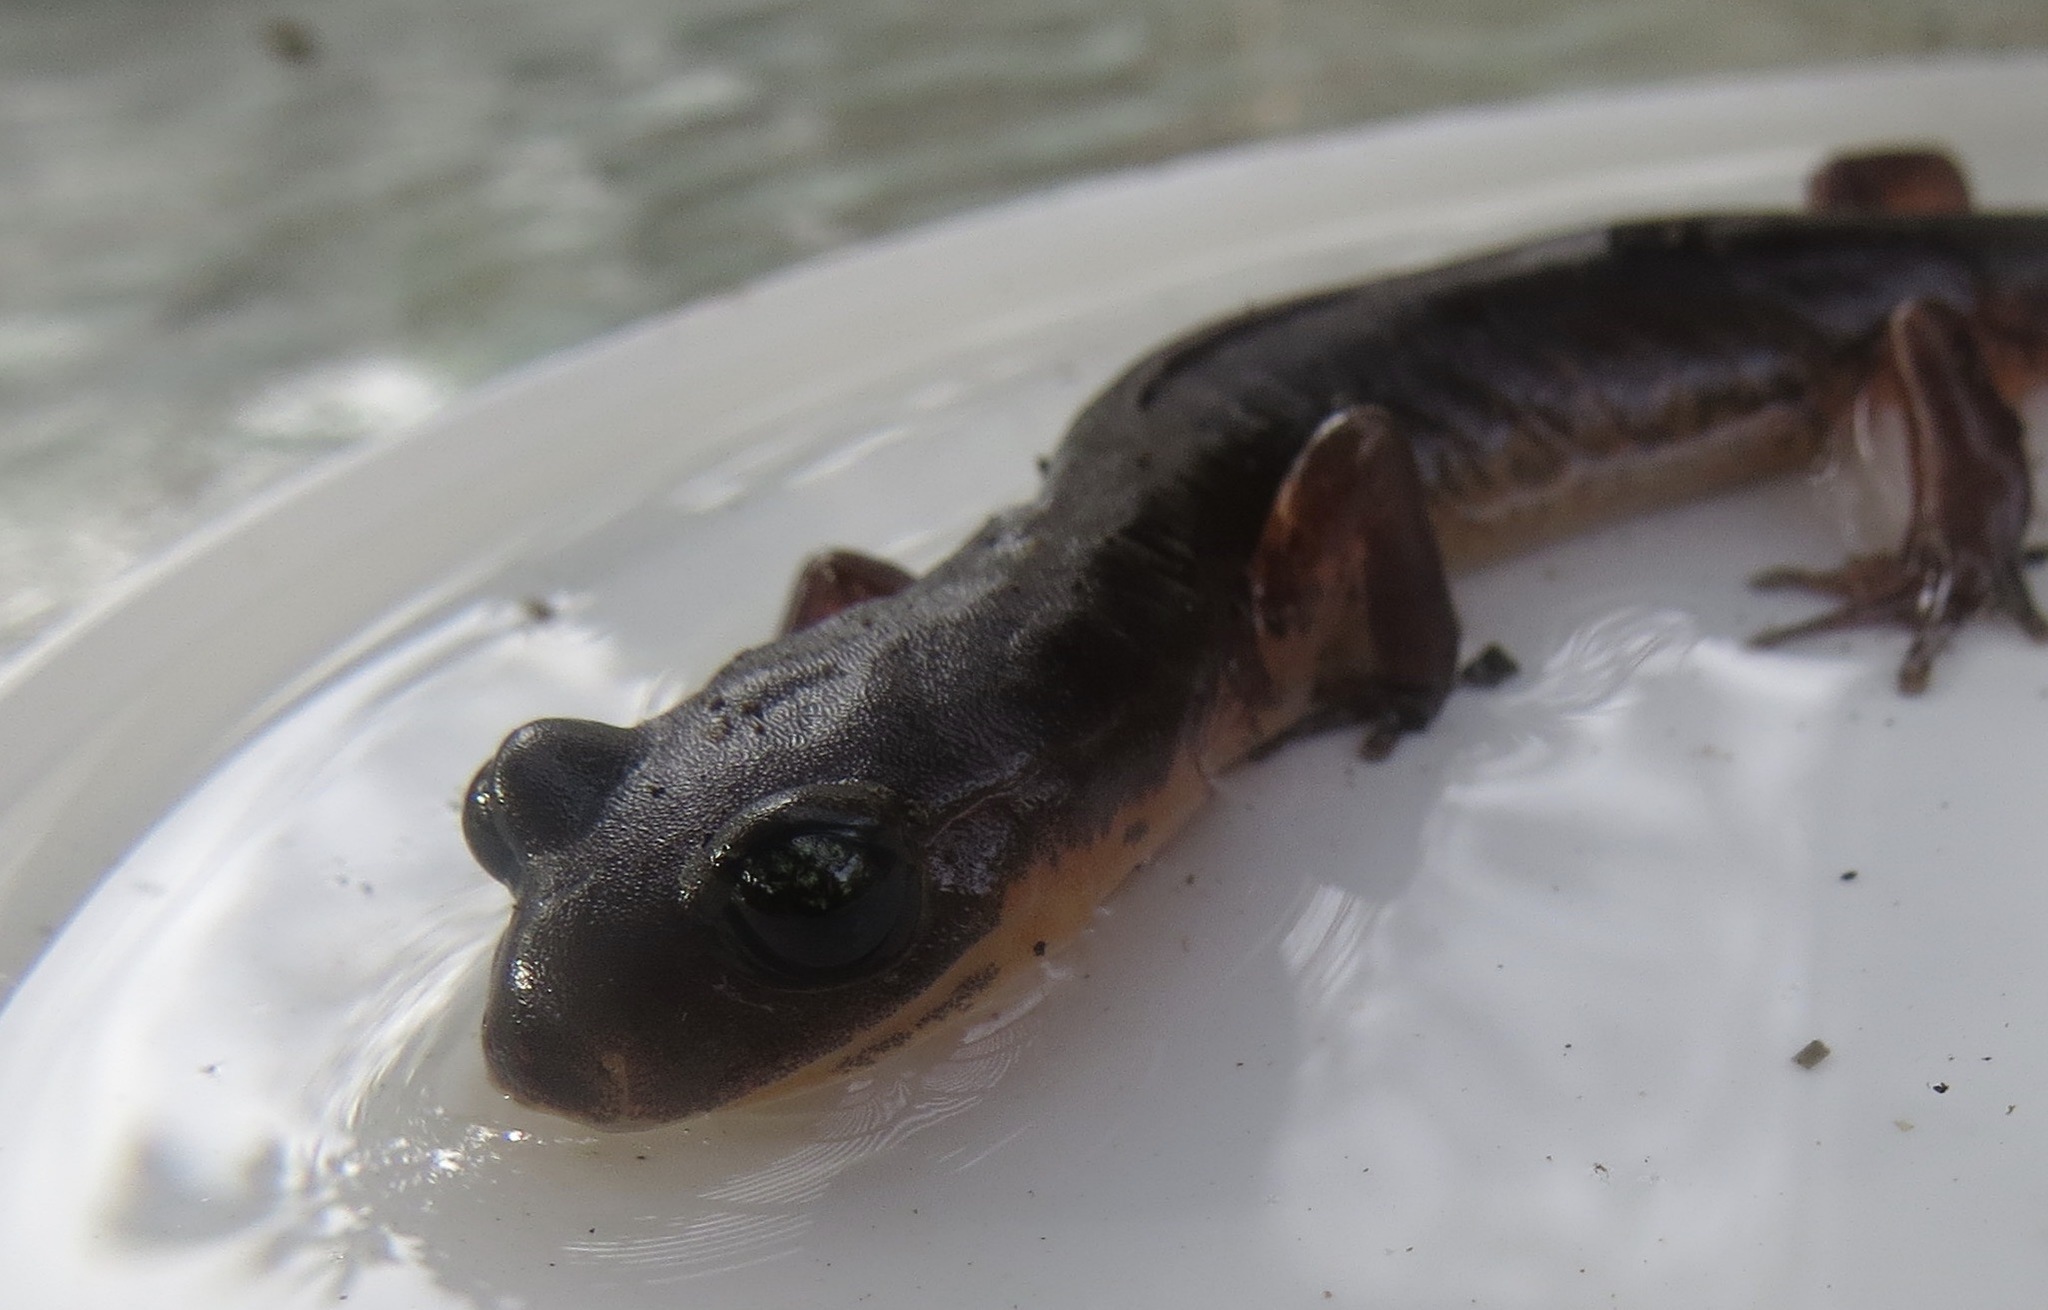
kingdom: Animalia
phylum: Chordata
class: Amphibia
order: Caudata
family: Plethodontidae
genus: Ensatina
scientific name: Ensatina eschscholtzii
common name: Ensatina
